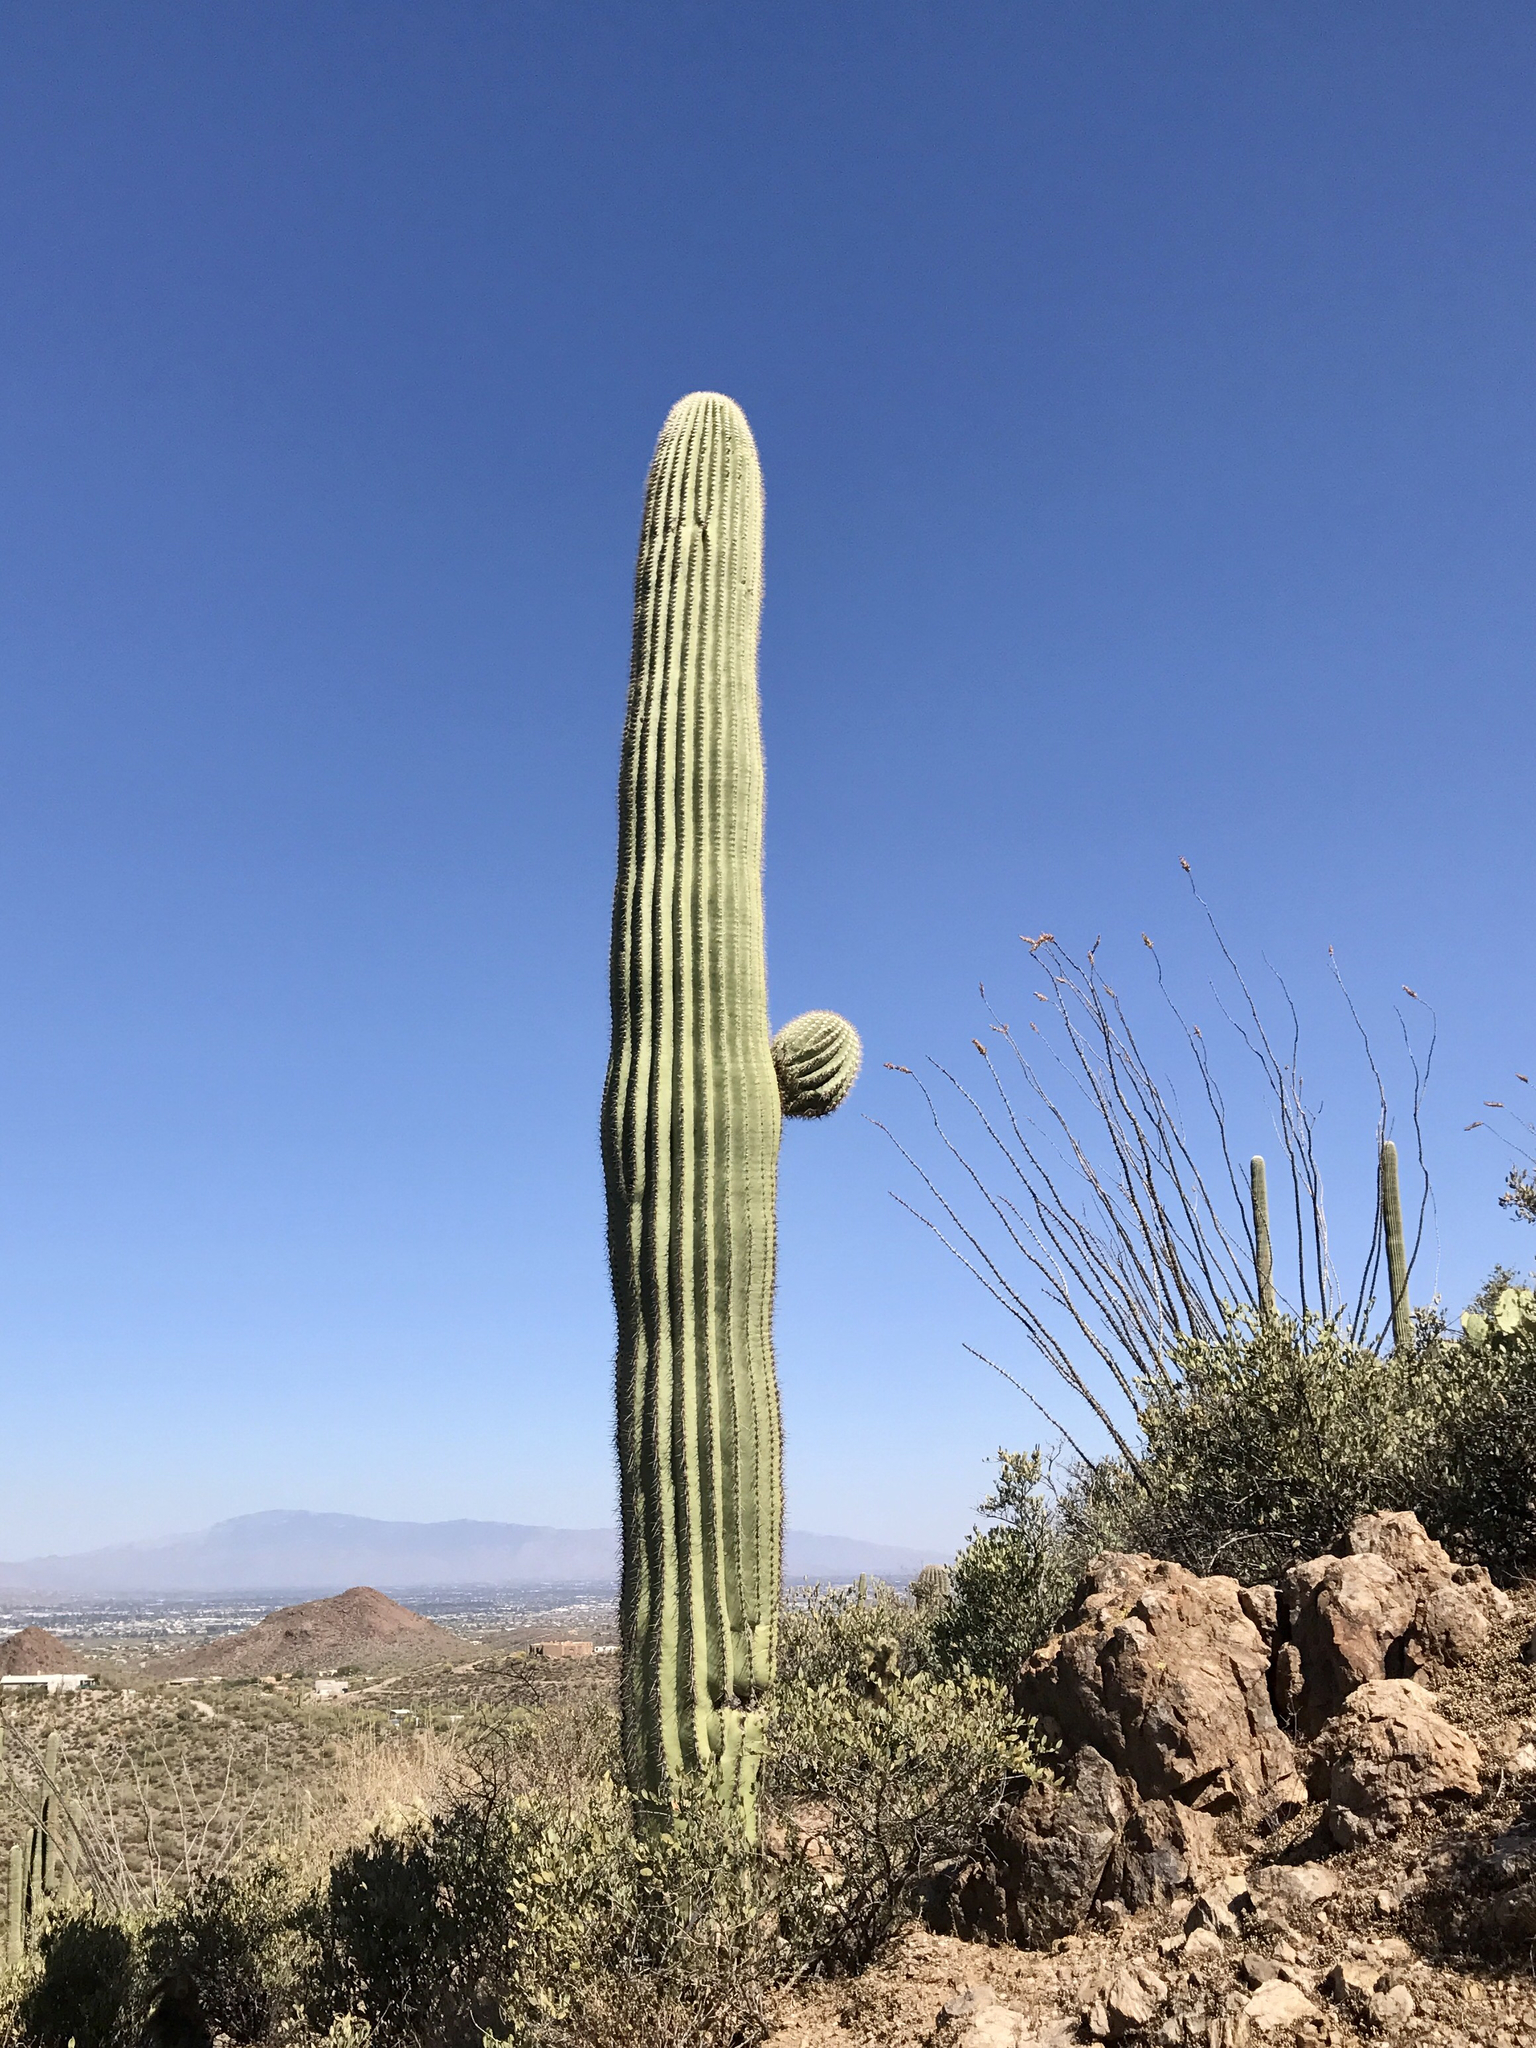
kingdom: Plantae
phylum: Tracheophyta
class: Magnoliopsida
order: Caryophyllales
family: Cactaceae
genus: Carnegiea
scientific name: Carnegiea gigantea
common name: Saguaro
